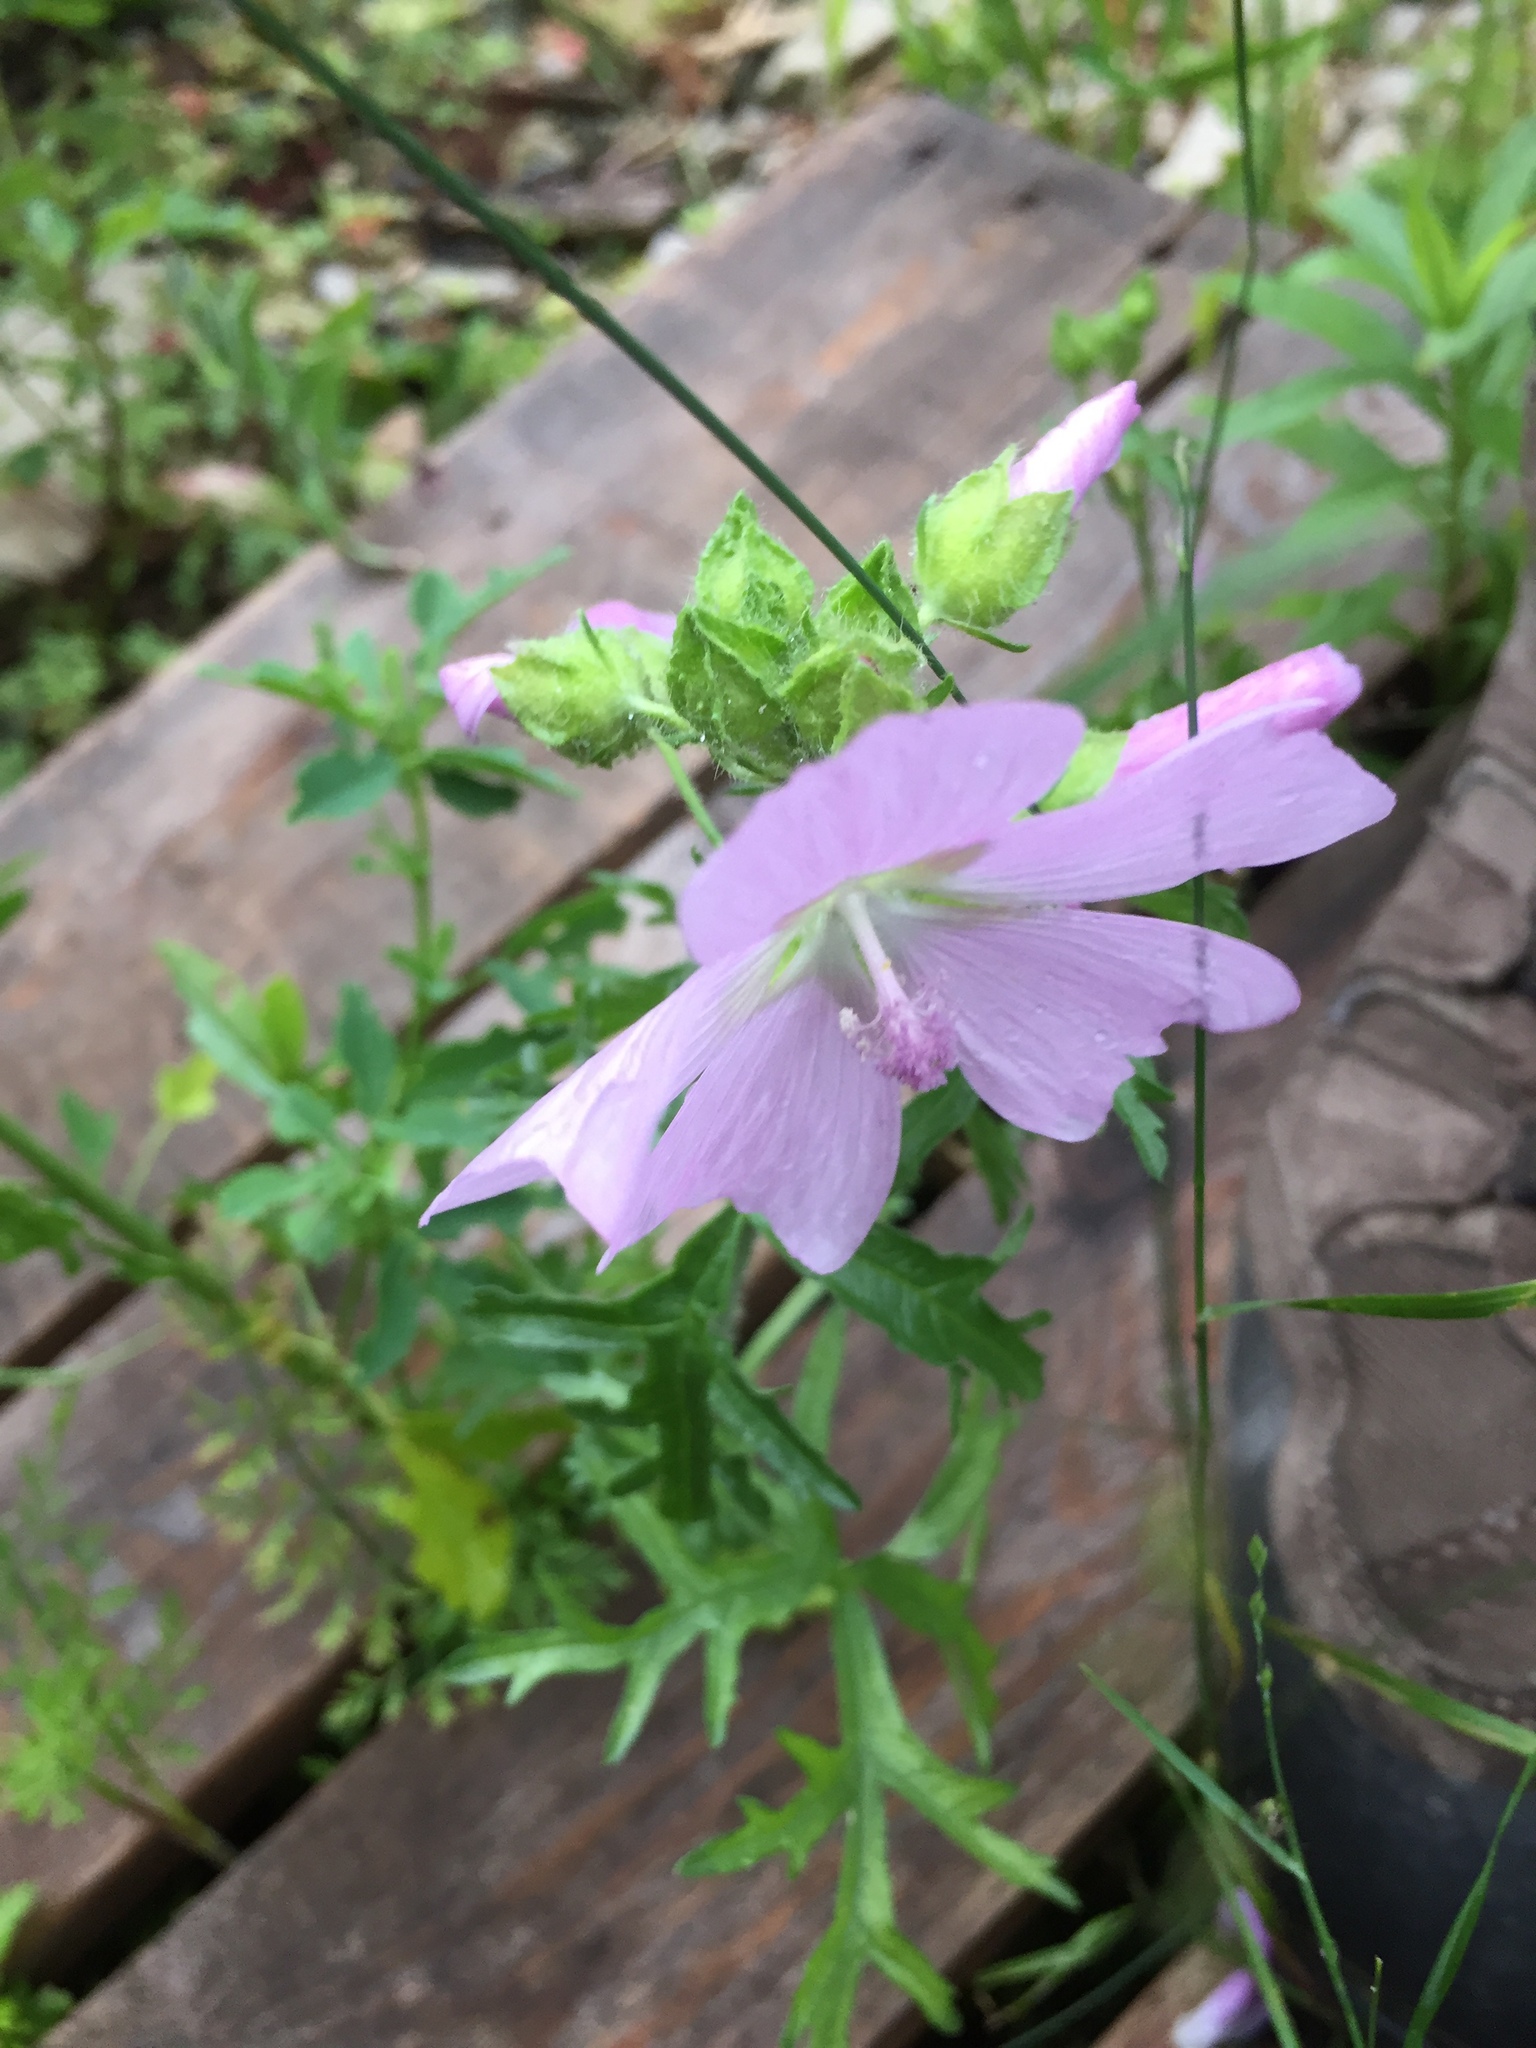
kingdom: Plantae
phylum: Tracheophyta
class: Magnoliopsida
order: Malvales
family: Malvaceae
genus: Malva
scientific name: Malva moschata
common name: Musk mallow
